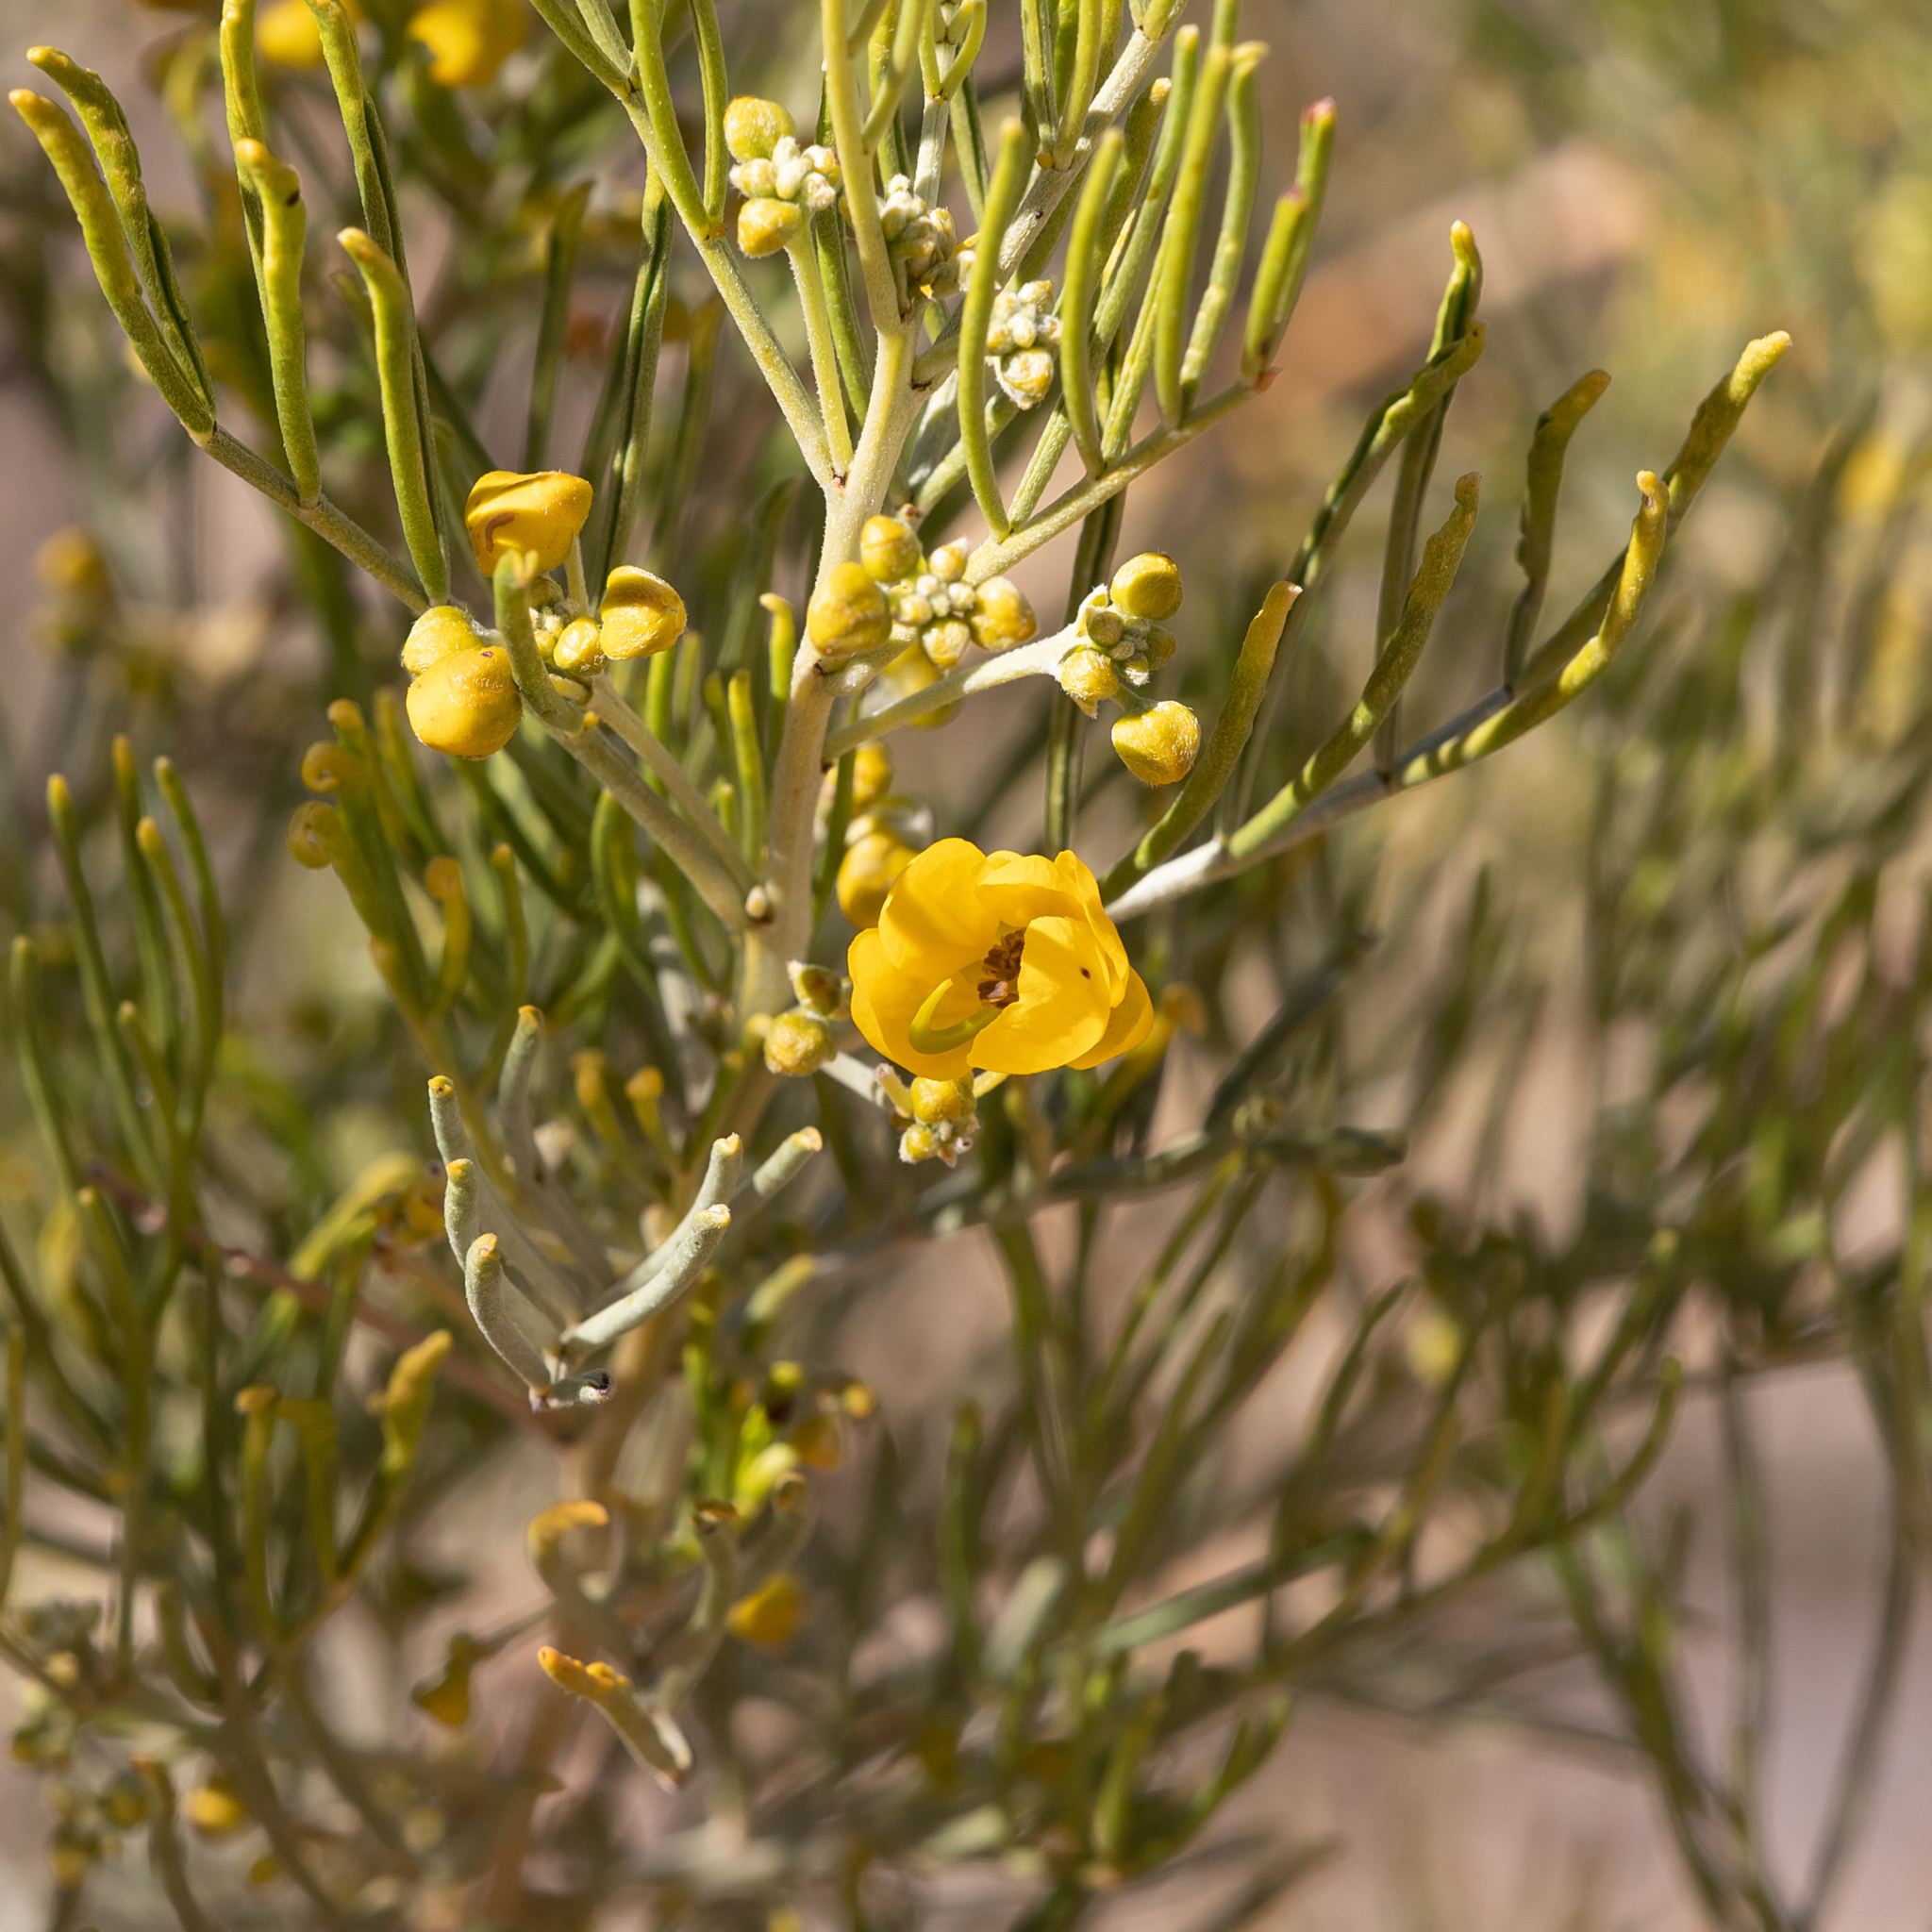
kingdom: Plantae
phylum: Tracheophyta
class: Magnoliopsida
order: Fabales
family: Fabaceae
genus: Senna
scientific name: Senna artemisioides
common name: Burnt-leaved acacia
